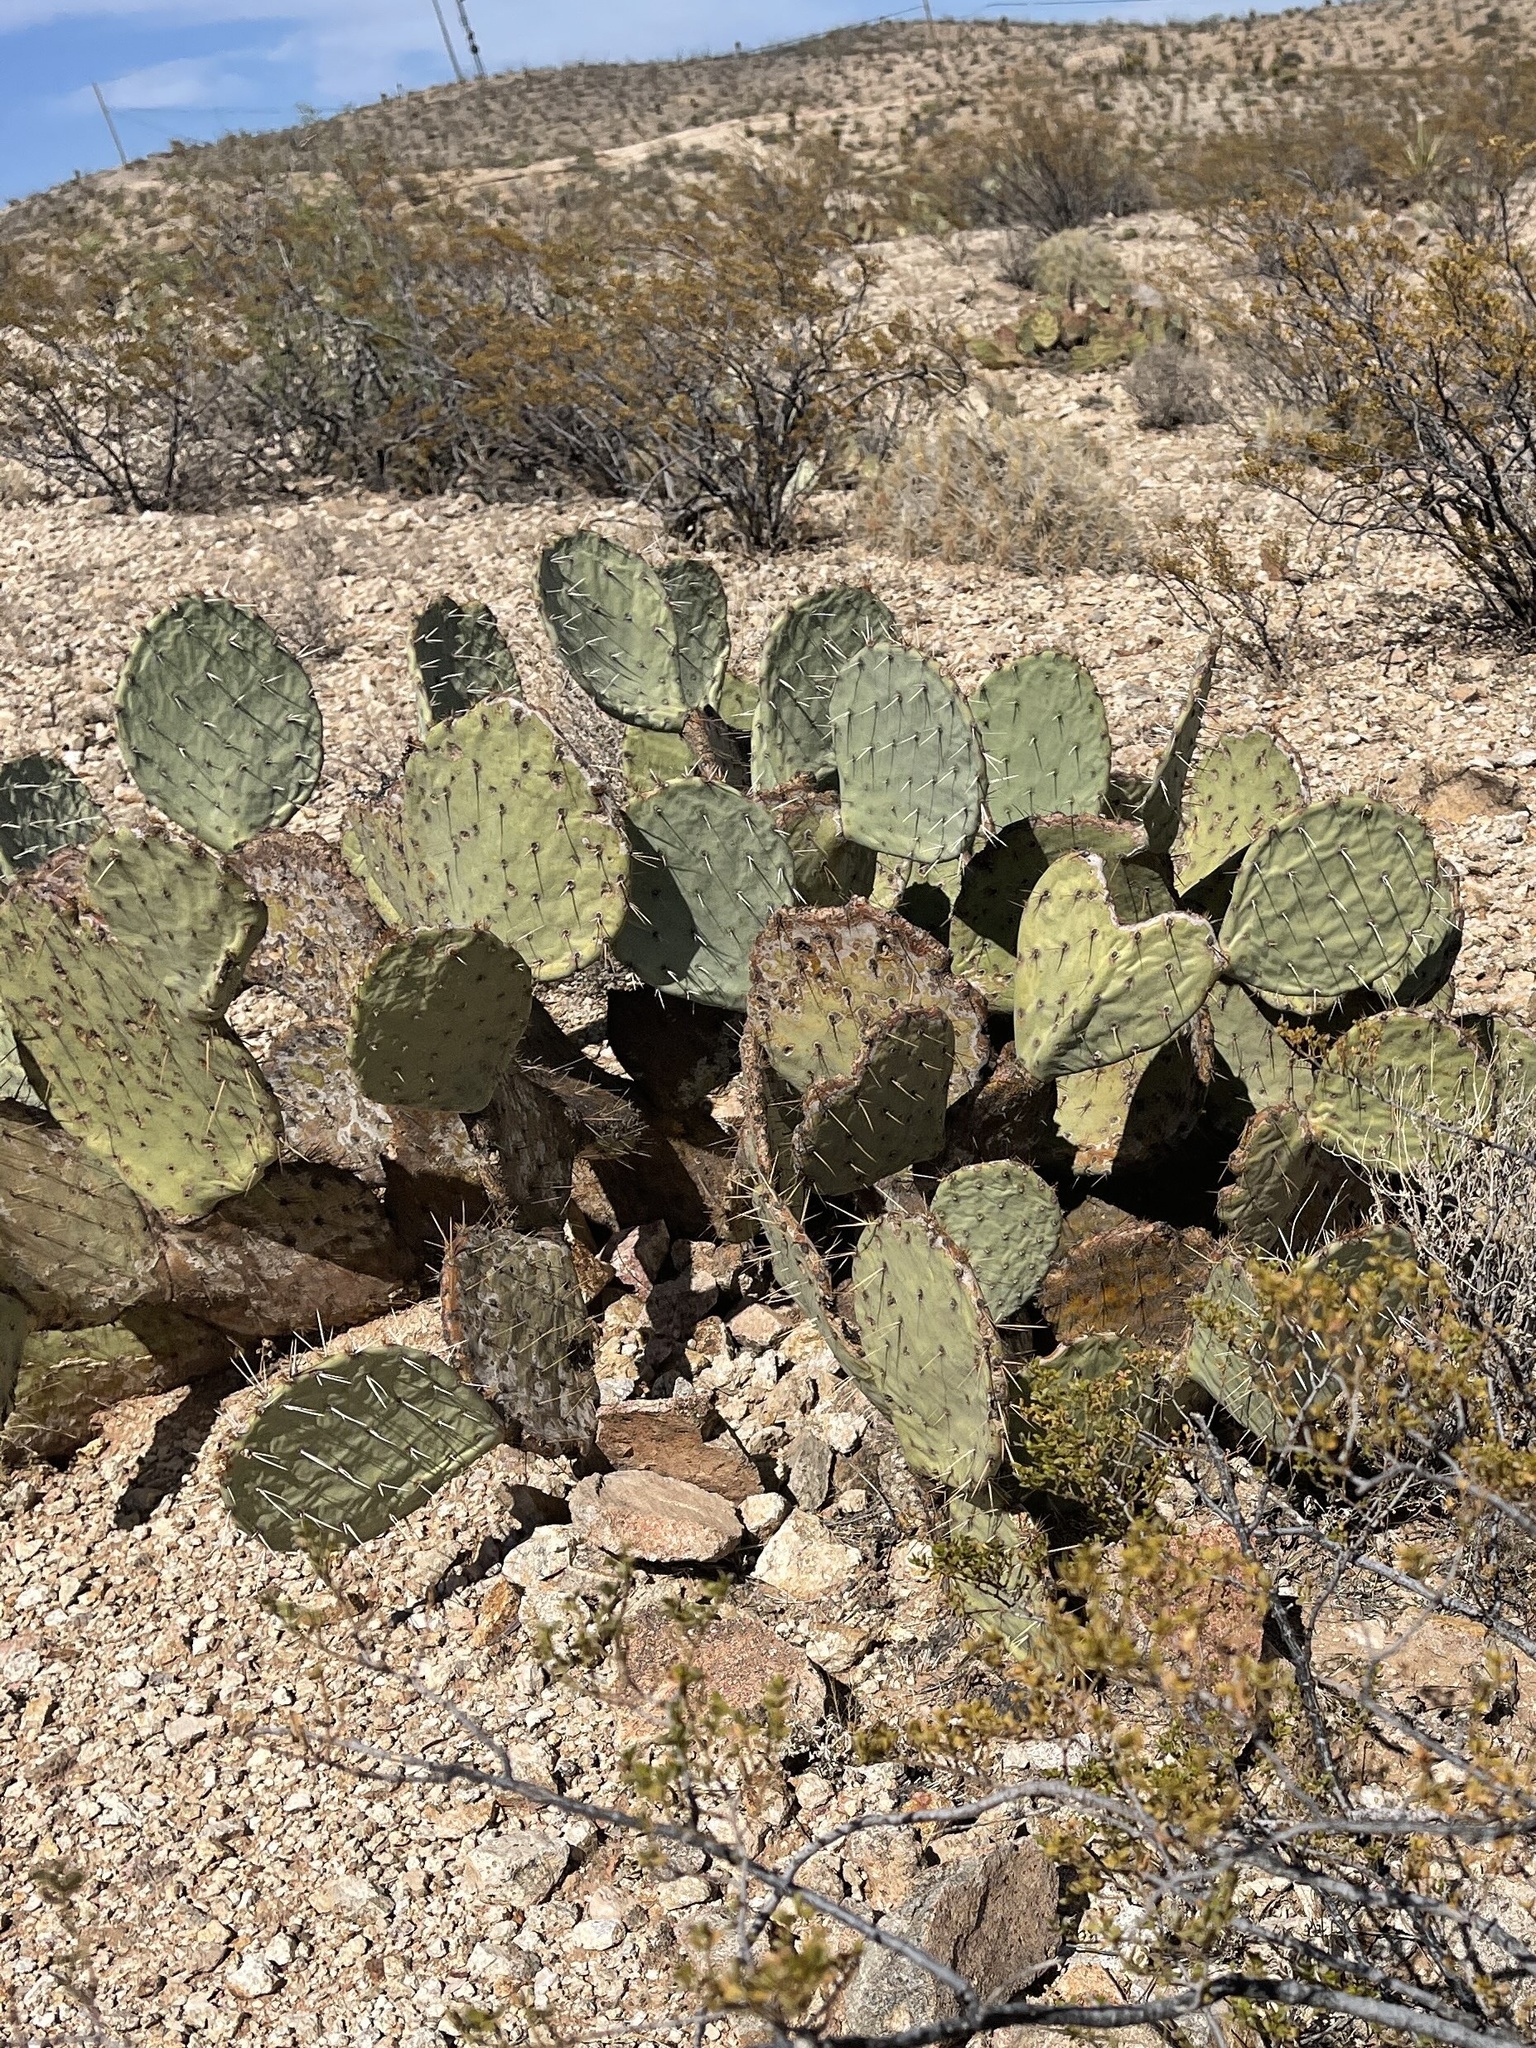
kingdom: Plantae
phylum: Tracheophyta
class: Magnoliopsida
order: Caryophyllales
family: Cactaceae
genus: Opuntia
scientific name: Opuntia engelmannii
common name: Cactus-apple
